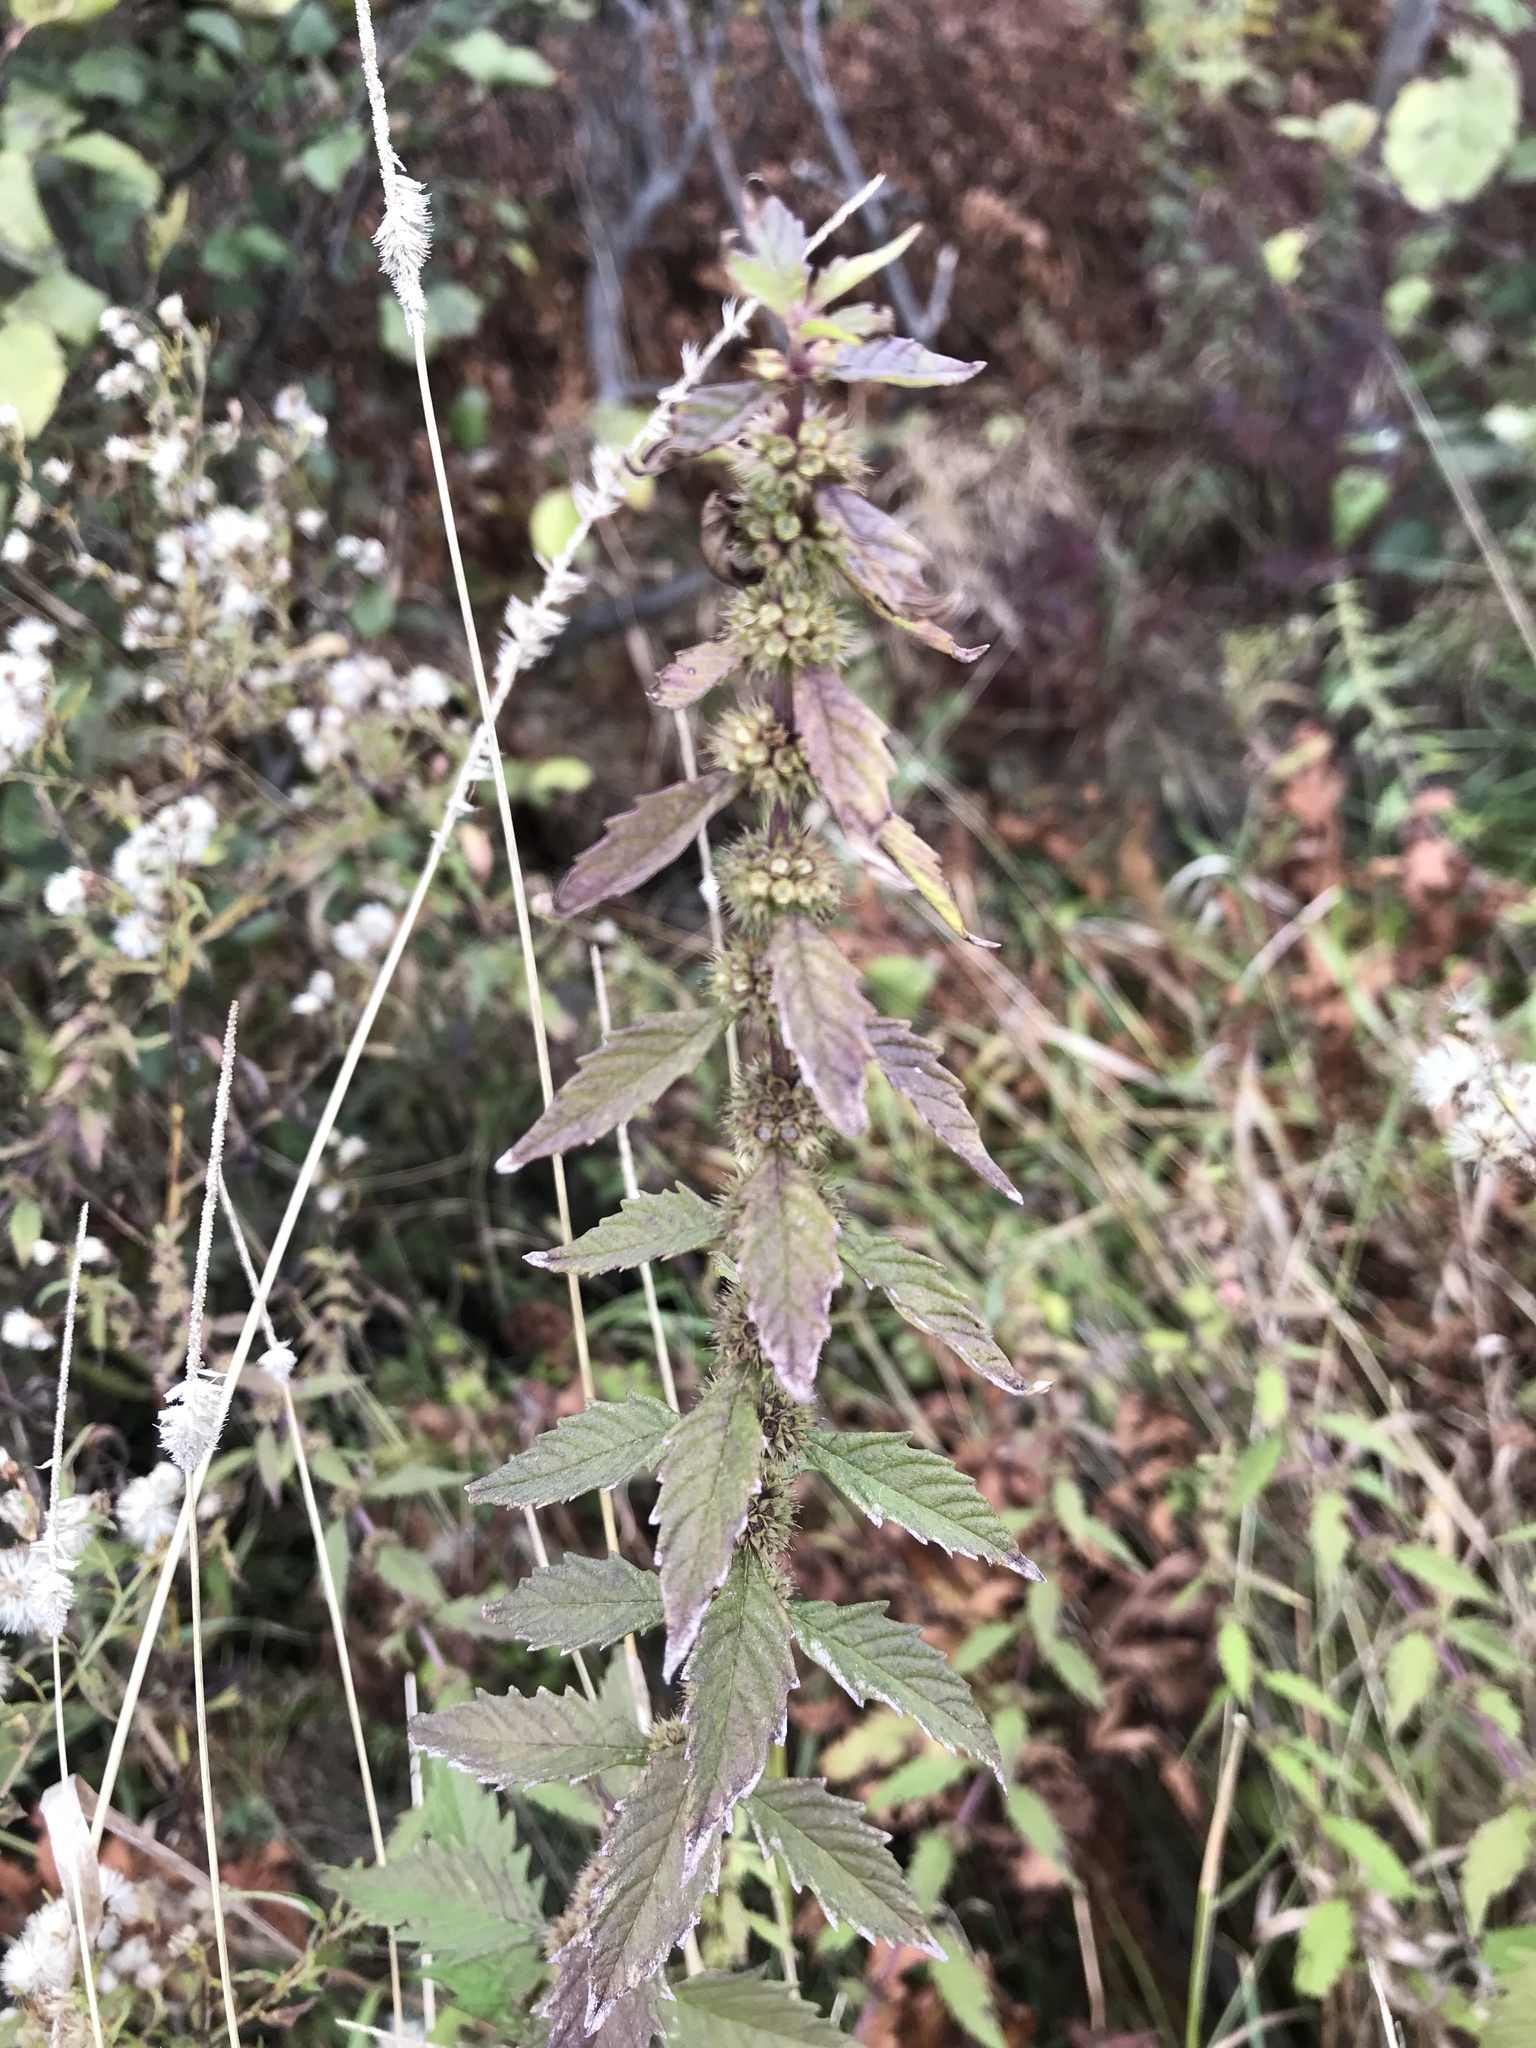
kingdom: Plantae
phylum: Tracheophyta
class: Magnoliopsida
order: Lamiales
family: Lamiaceae
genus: Lycopus
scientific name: Lycopus europaeus
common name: European bugleweed
